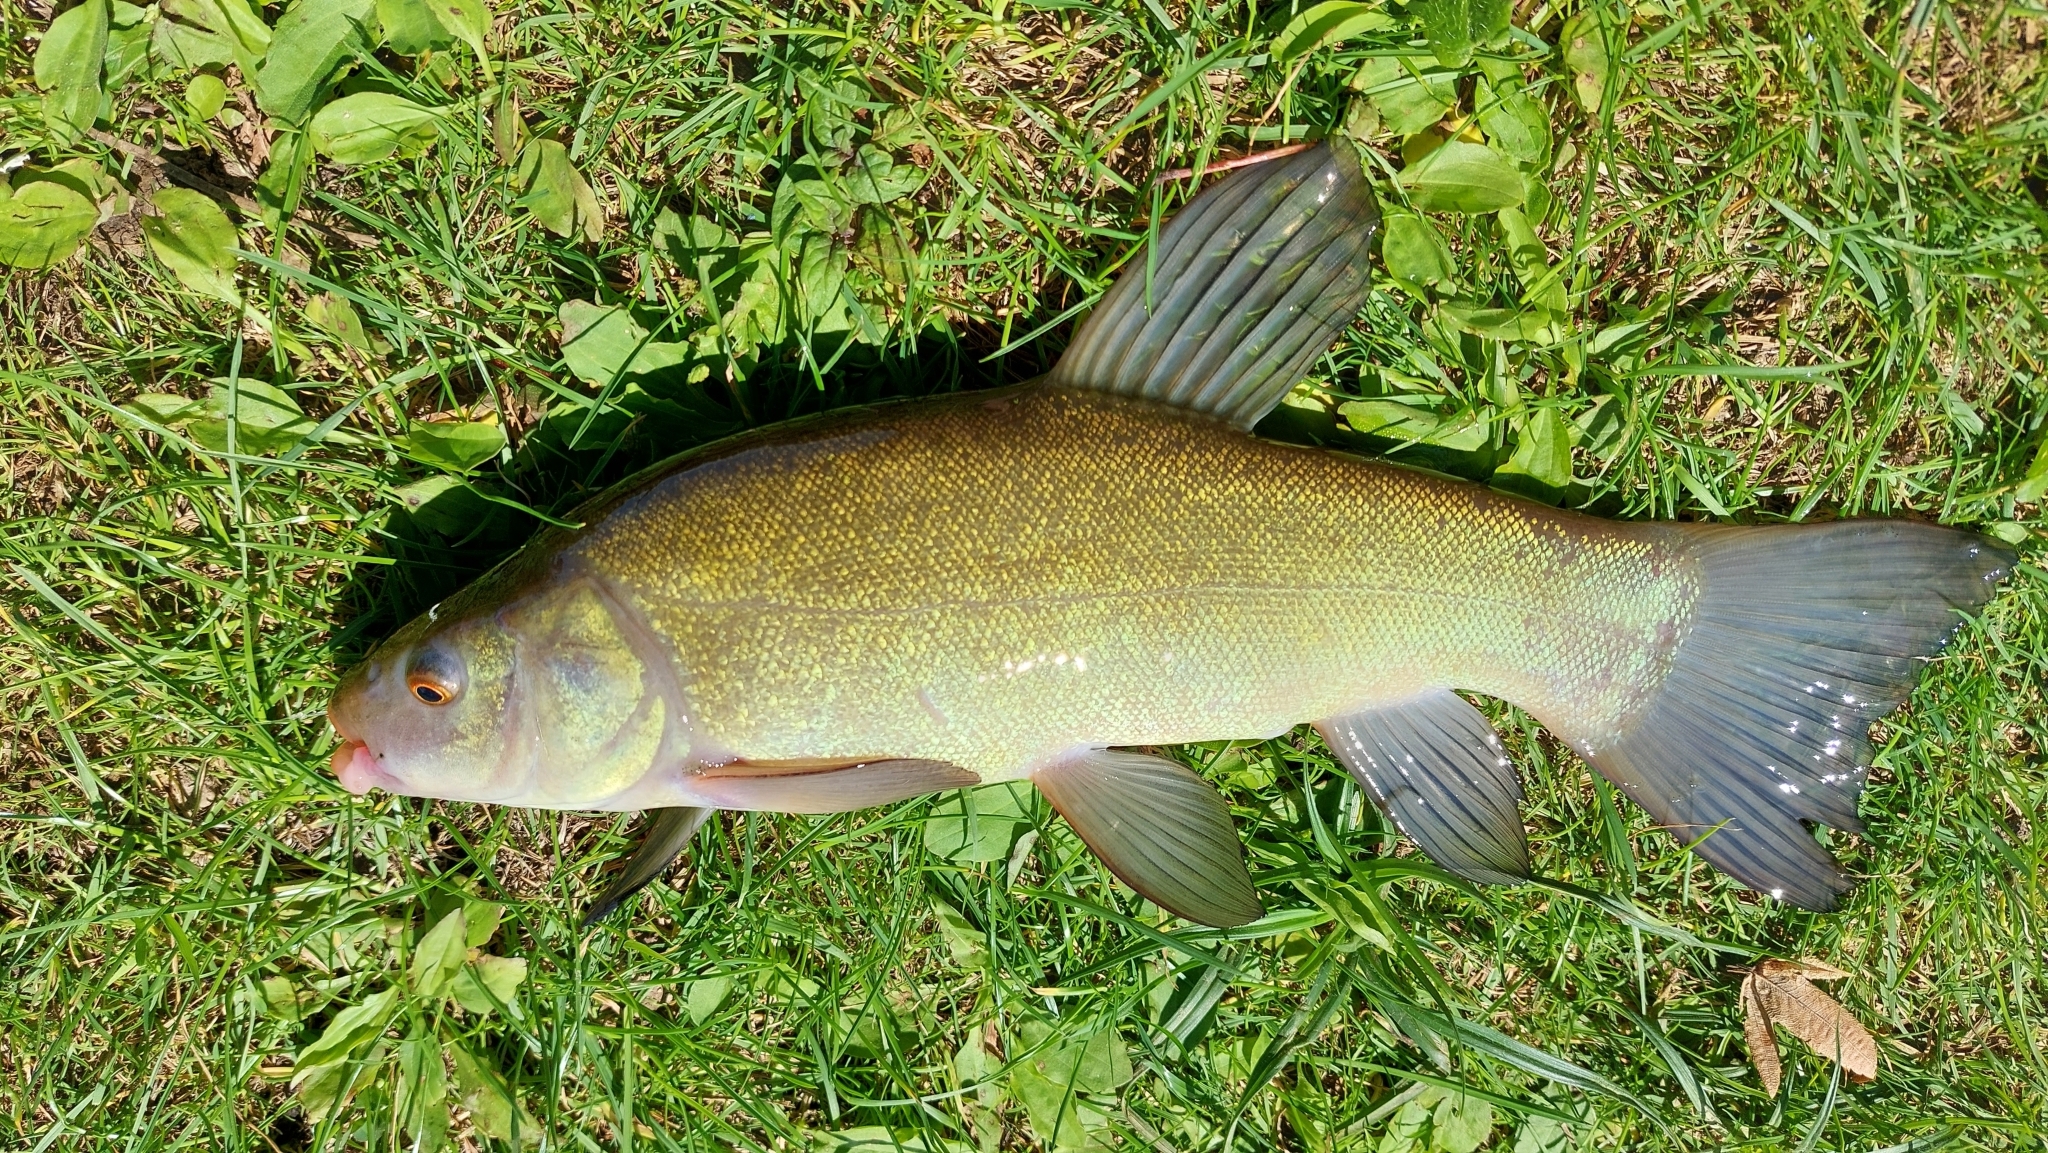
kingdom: Animalia
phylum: Chordata
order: Cypriniformes
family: Cyprinidae
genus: Tinca
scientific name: Tinca tinca
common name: Tench
